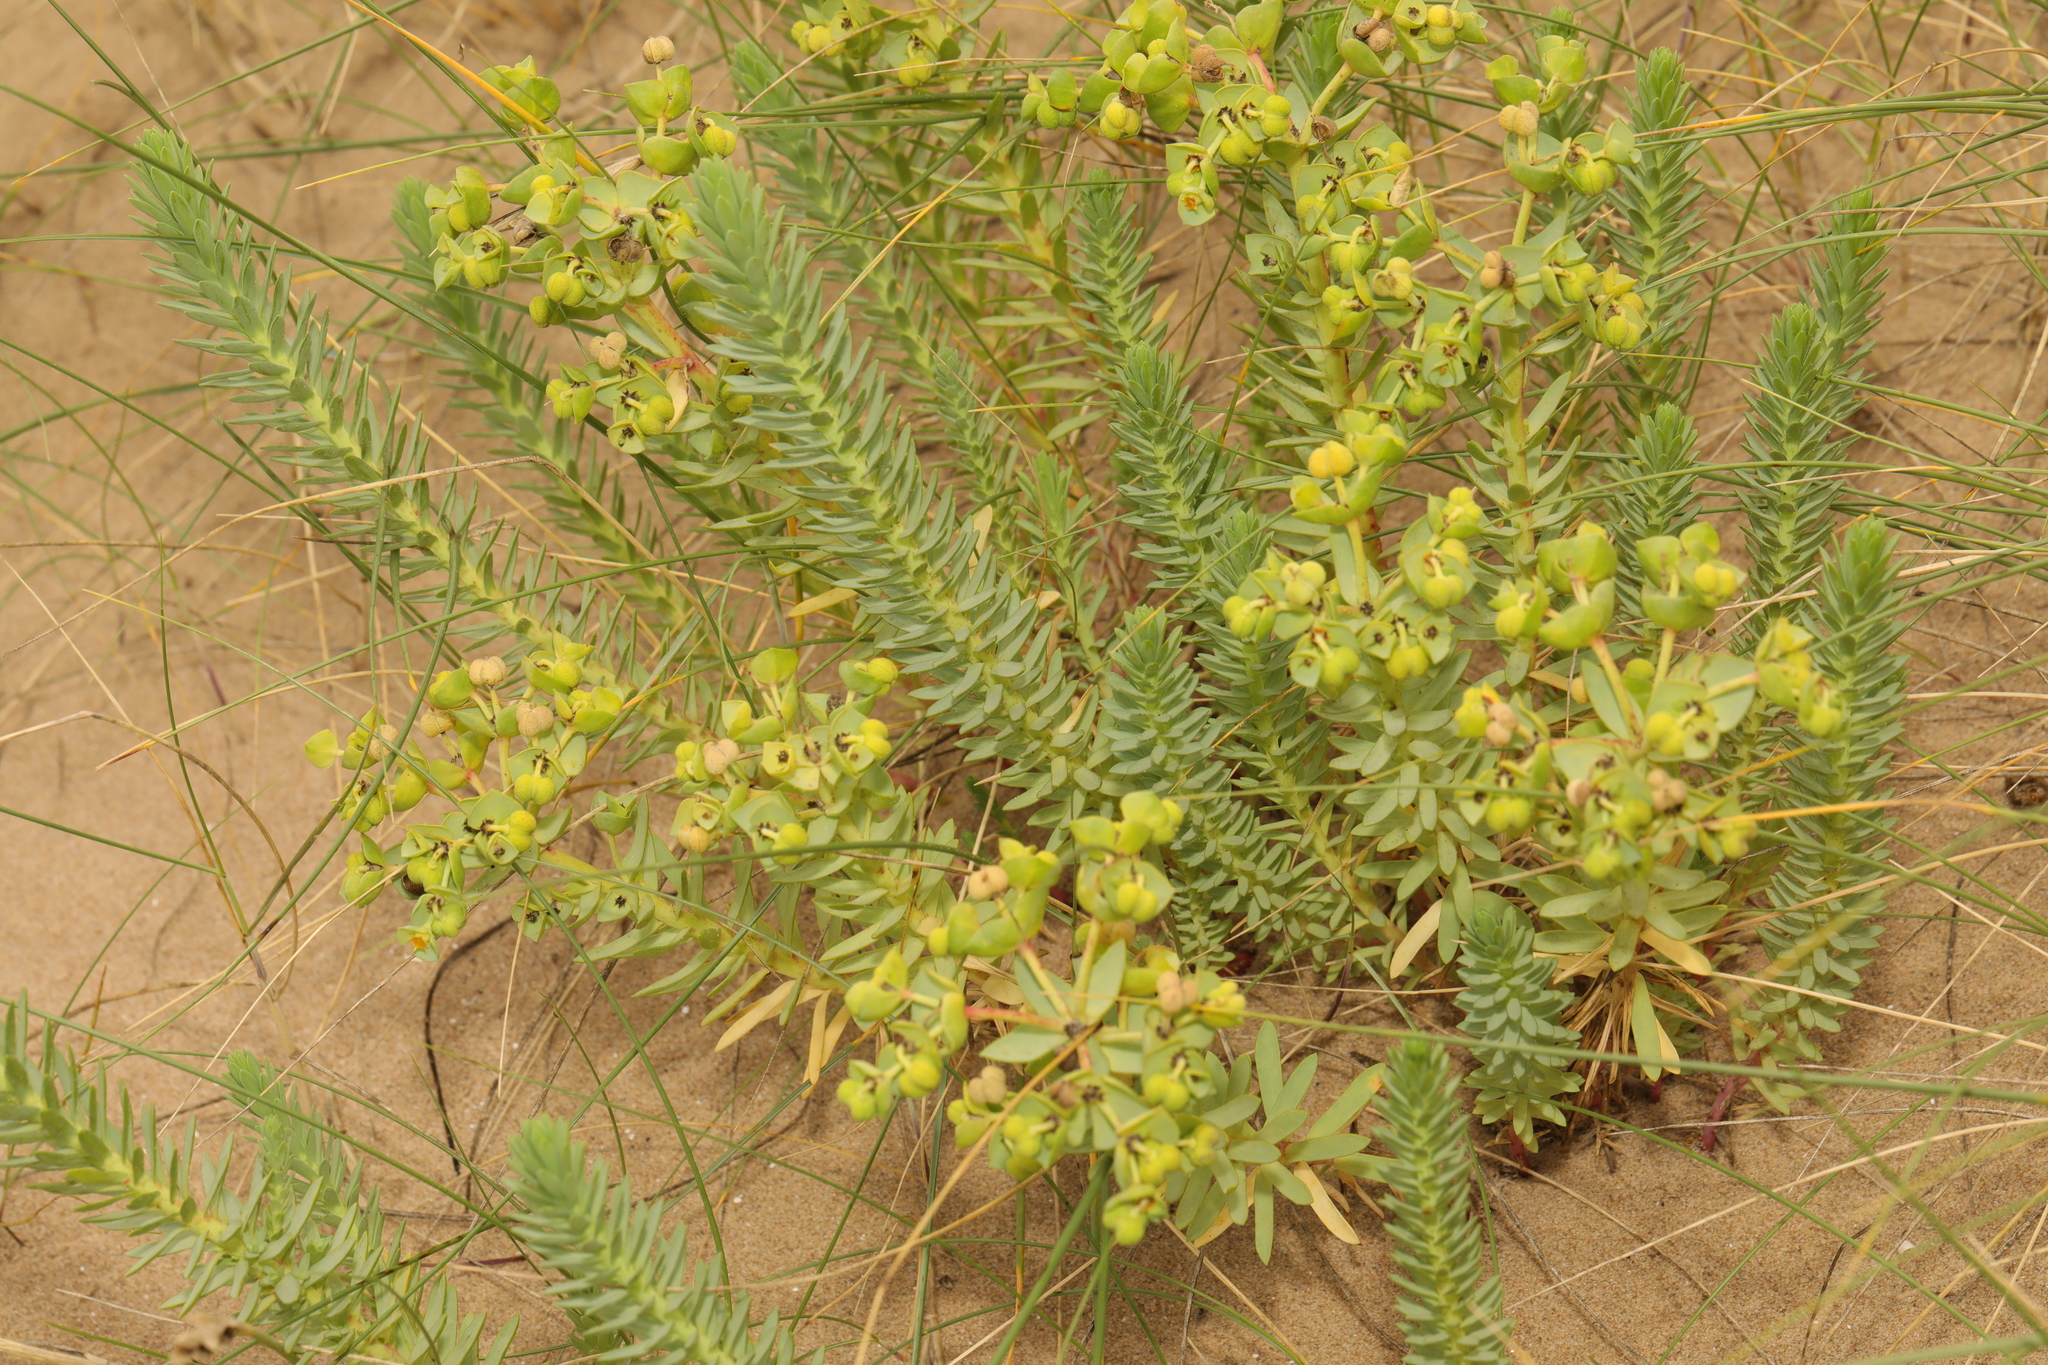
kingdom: Plantae
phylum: Tracheophyta
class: Magnoliopsida
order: Malpighiales
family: Euphorbiaceae
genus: Euphorbia
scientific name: Euphorbia paralias
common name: Sea spurge
